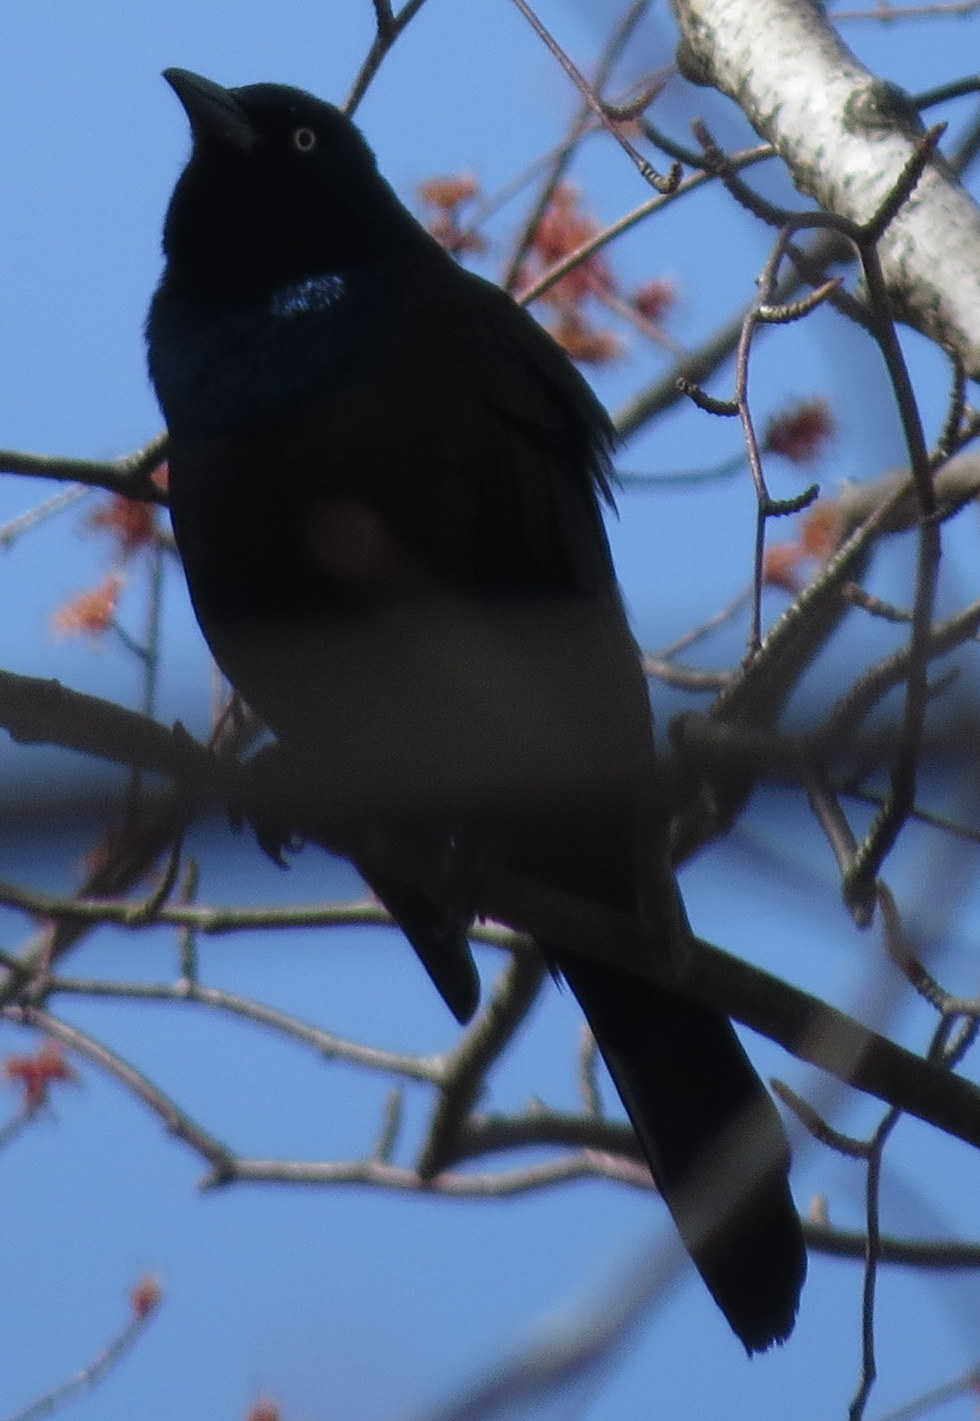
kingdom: Animalia
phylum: Chordata
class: Aves
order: Passeriformes
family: Icteridae
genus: Quiscalus
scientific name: Quiscalus quiscula
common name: Common grackle
